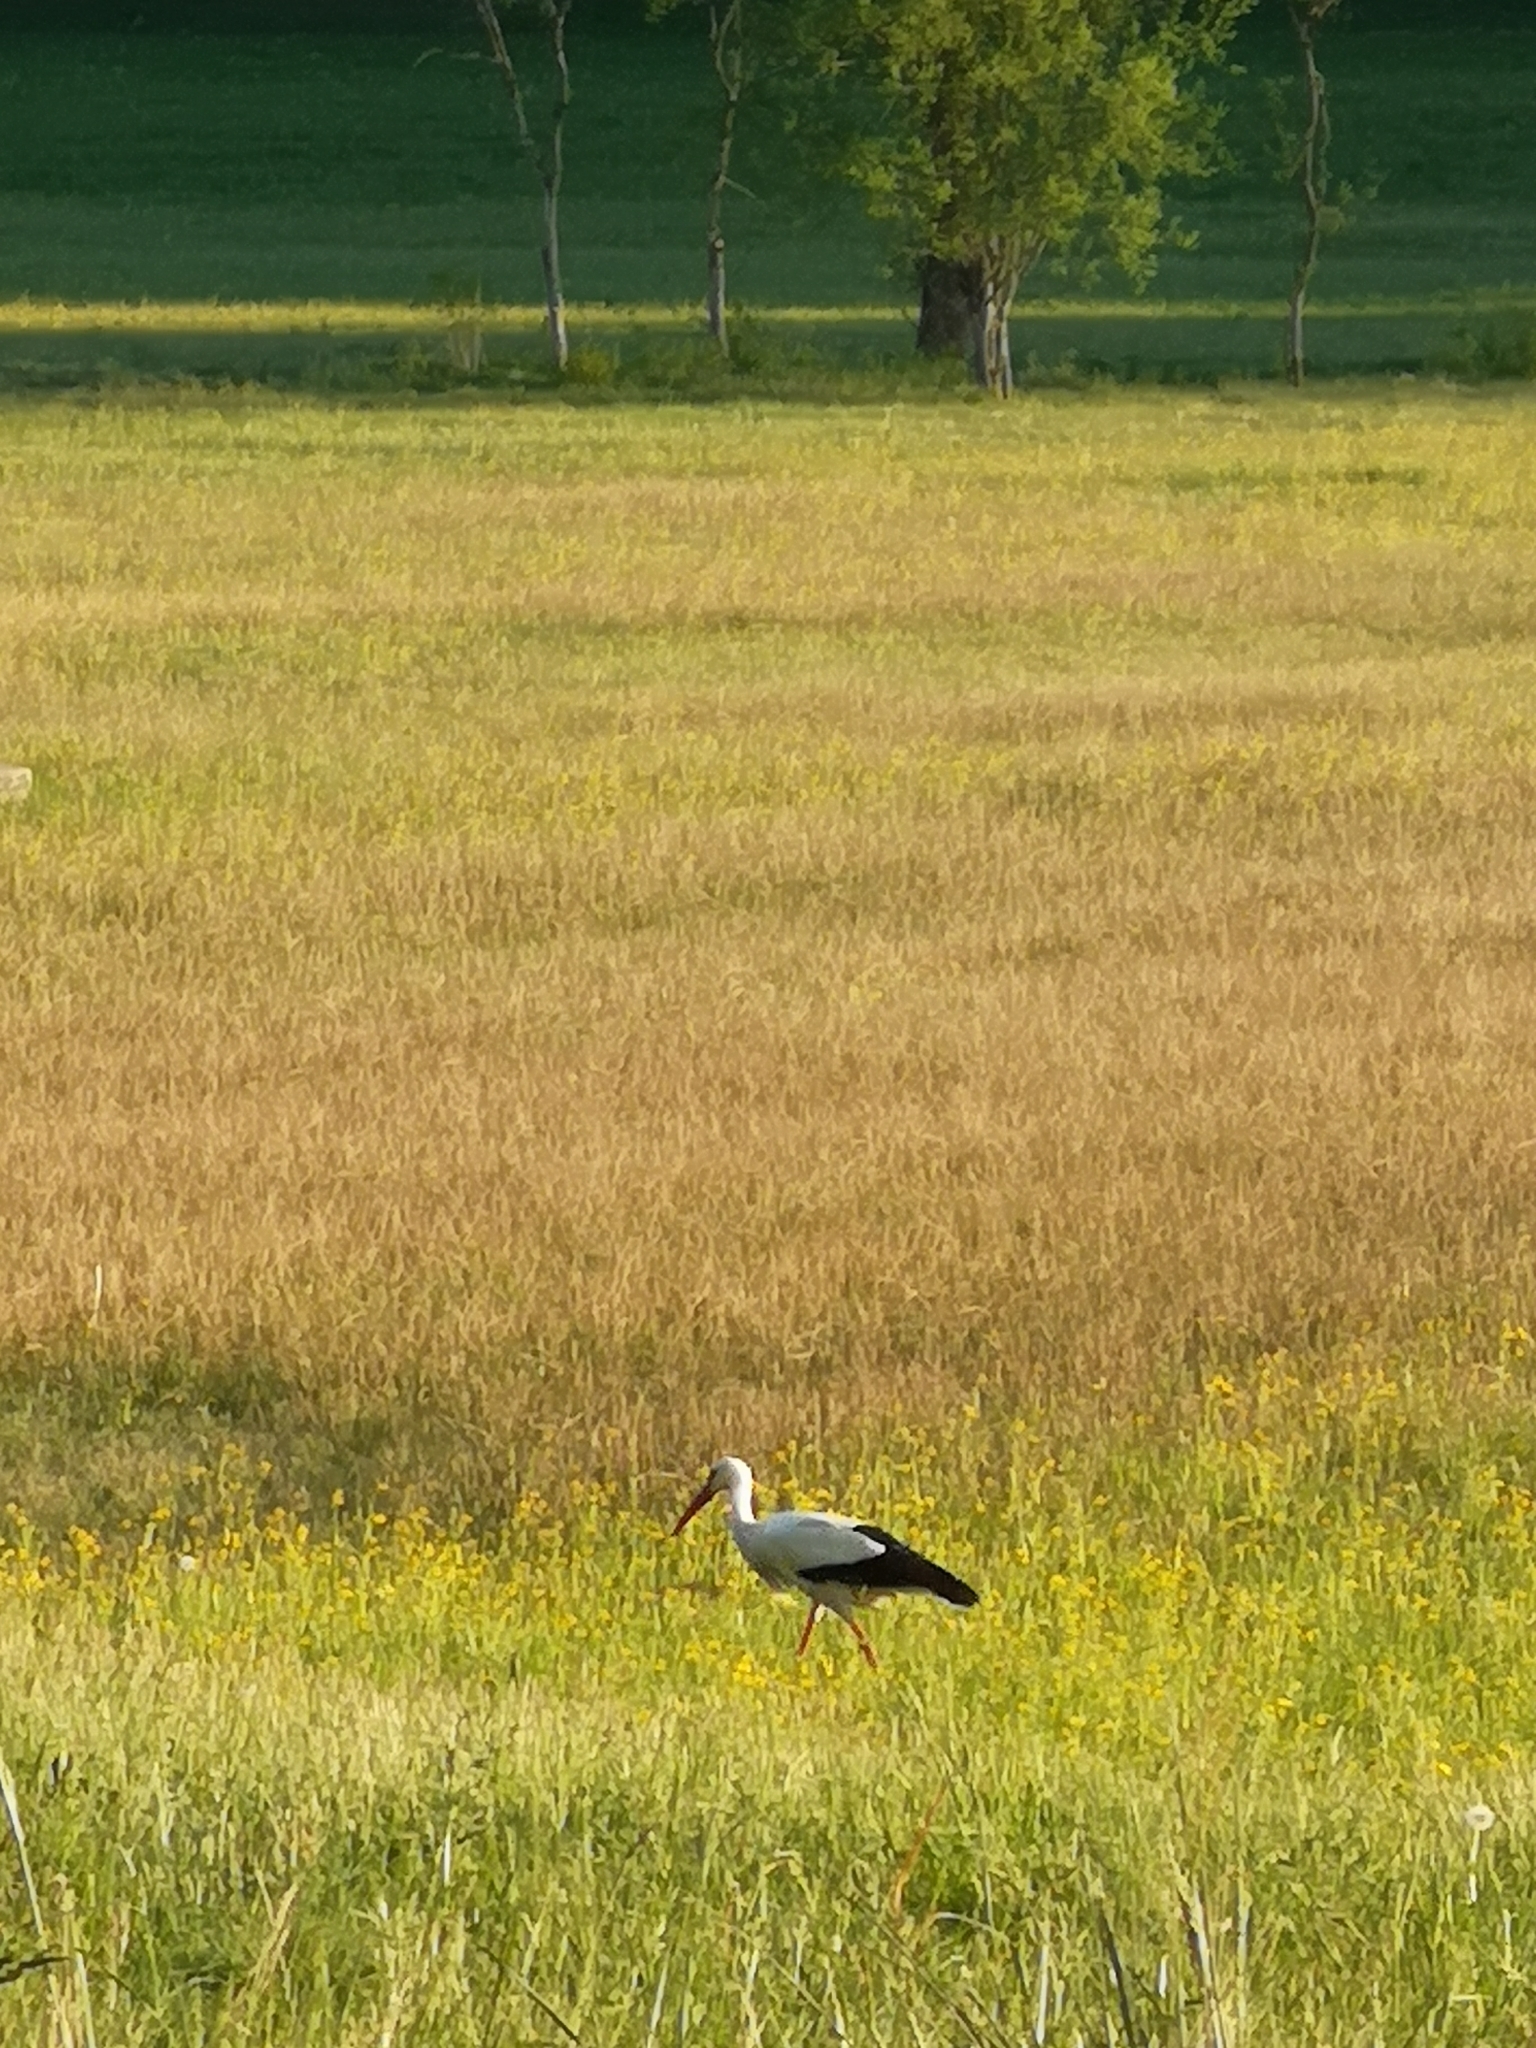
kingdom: Animalia
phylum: Chordata
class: Aves
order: Ciconiiformes
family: Ciconiidae
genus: Ciconia
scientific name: Ciconia ciconia
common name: White stork
